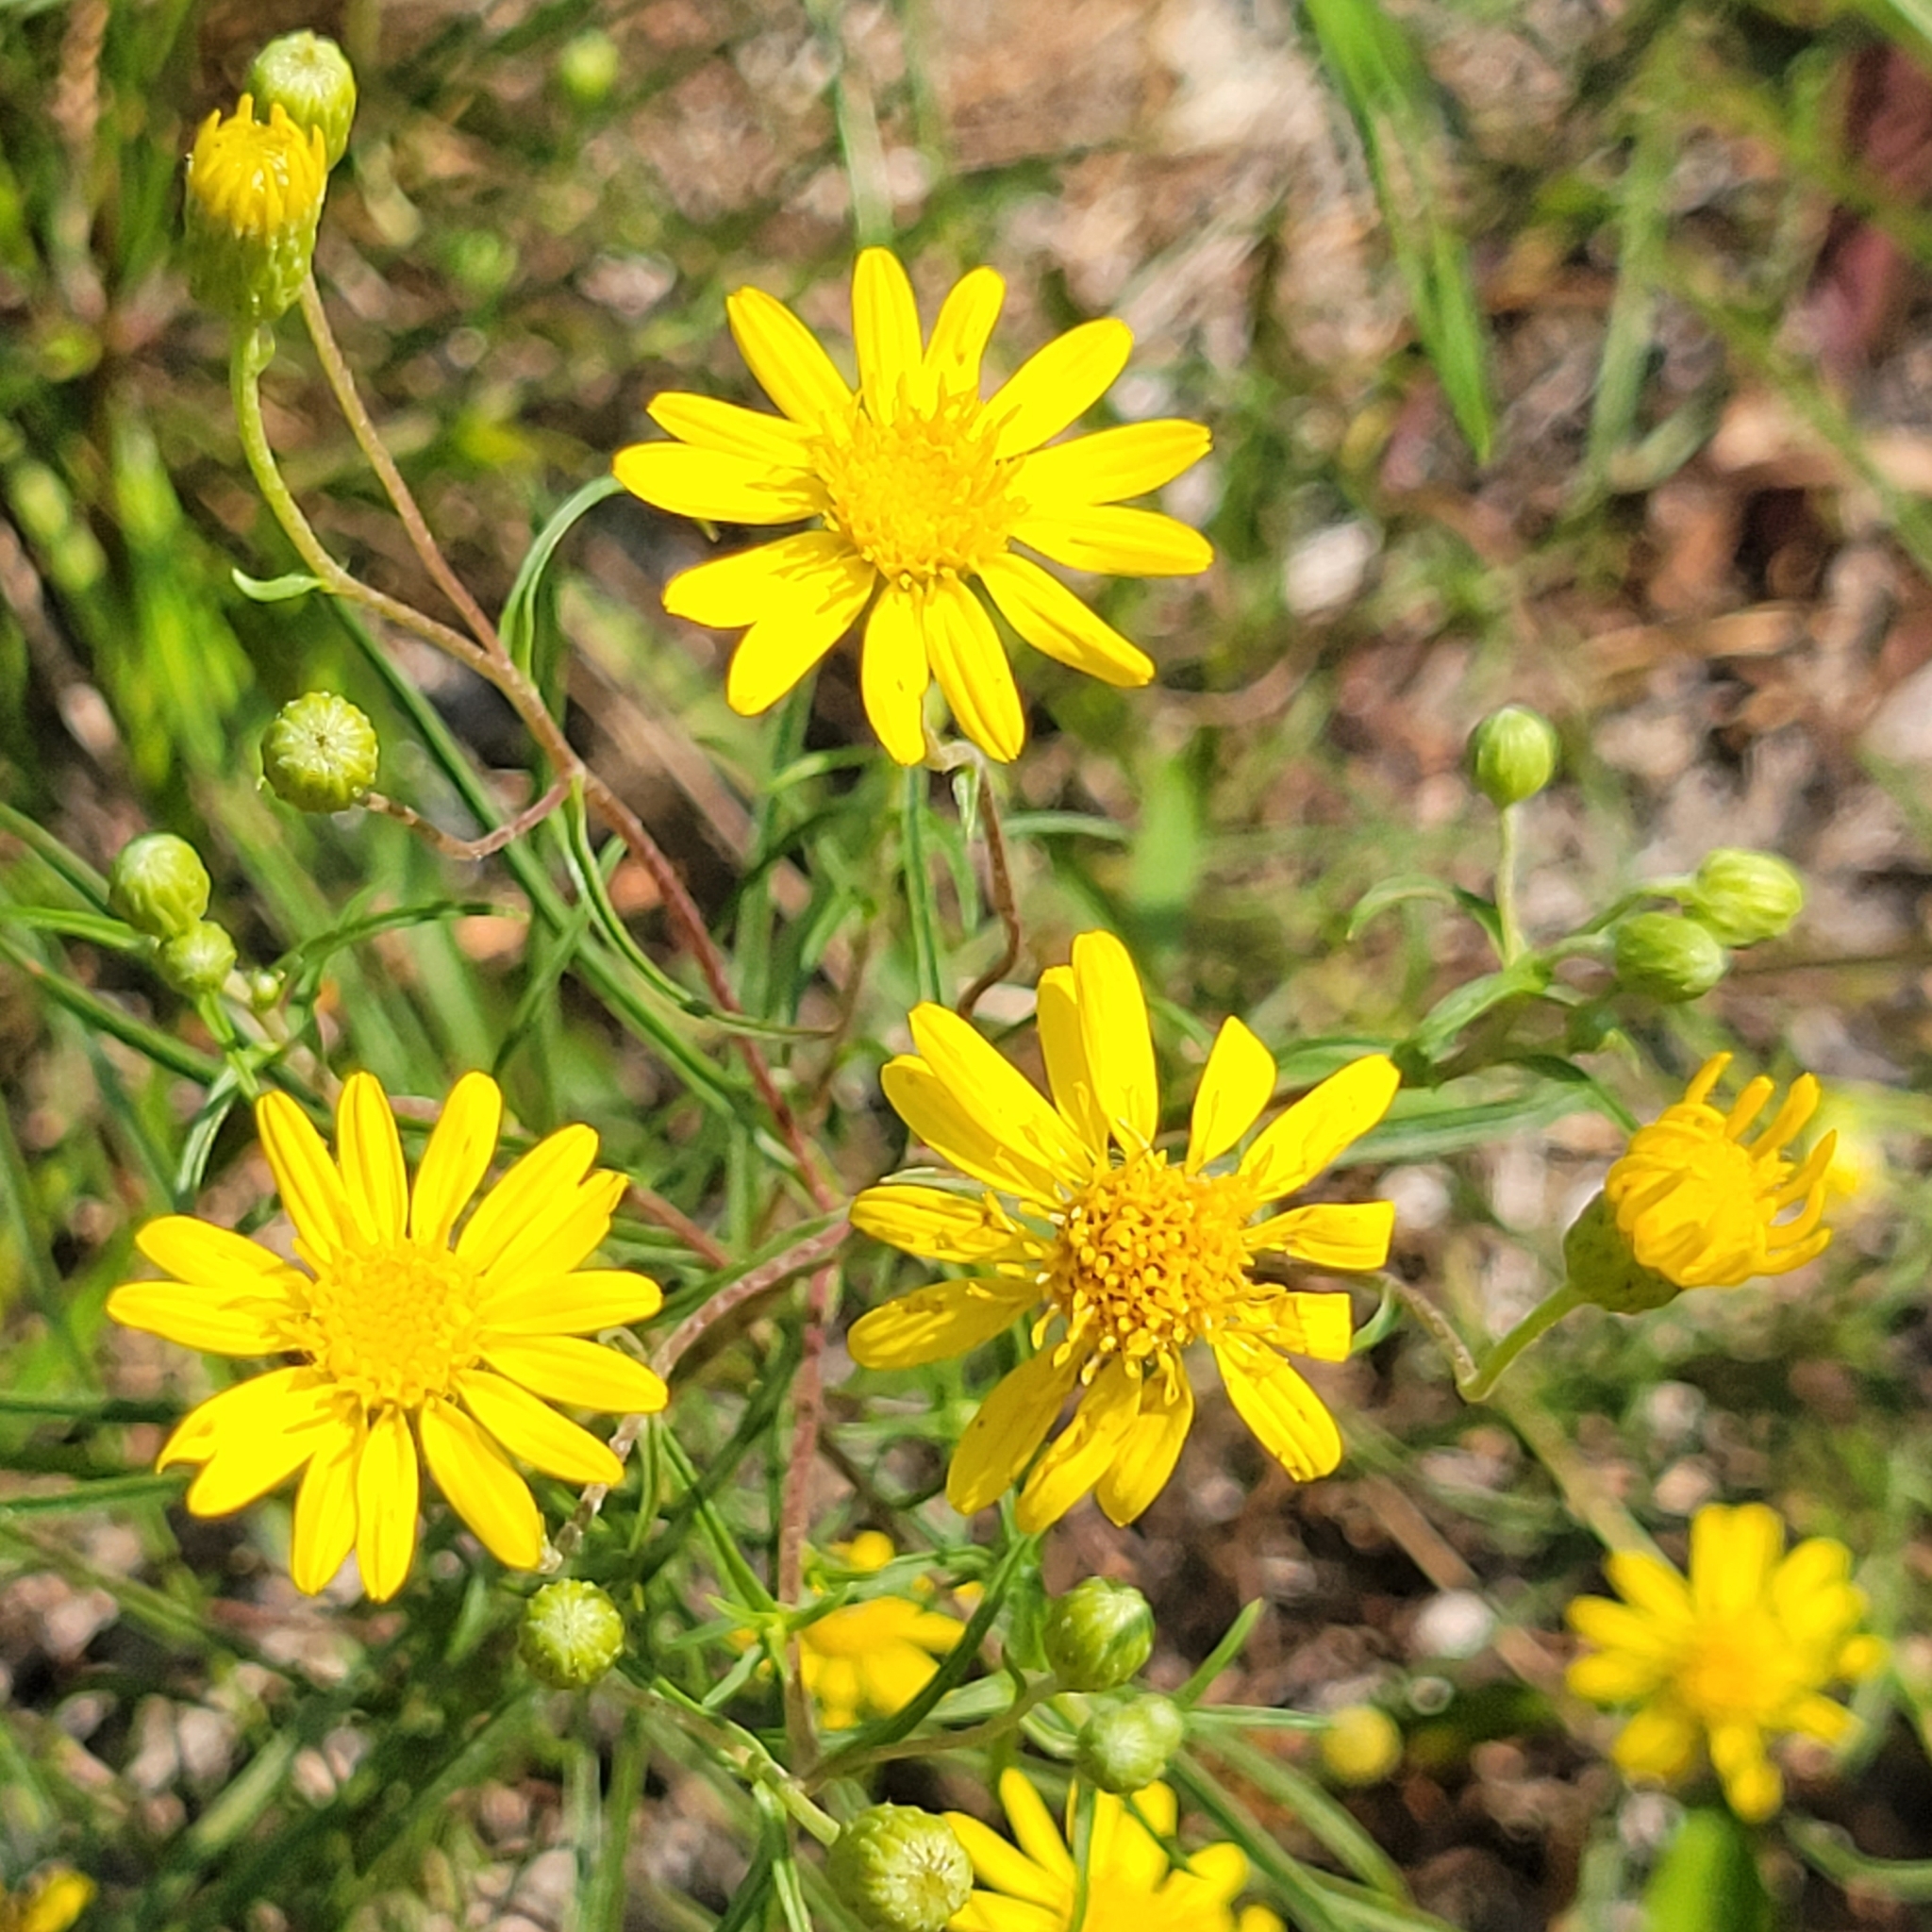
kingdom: Plantae
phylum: Tracheophyta
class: Magnoliopsida
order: Asterales
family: Asteraceae
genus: Pityopsis
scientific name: Pityopsis falcata
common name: Sickle-leaved goldenaster
